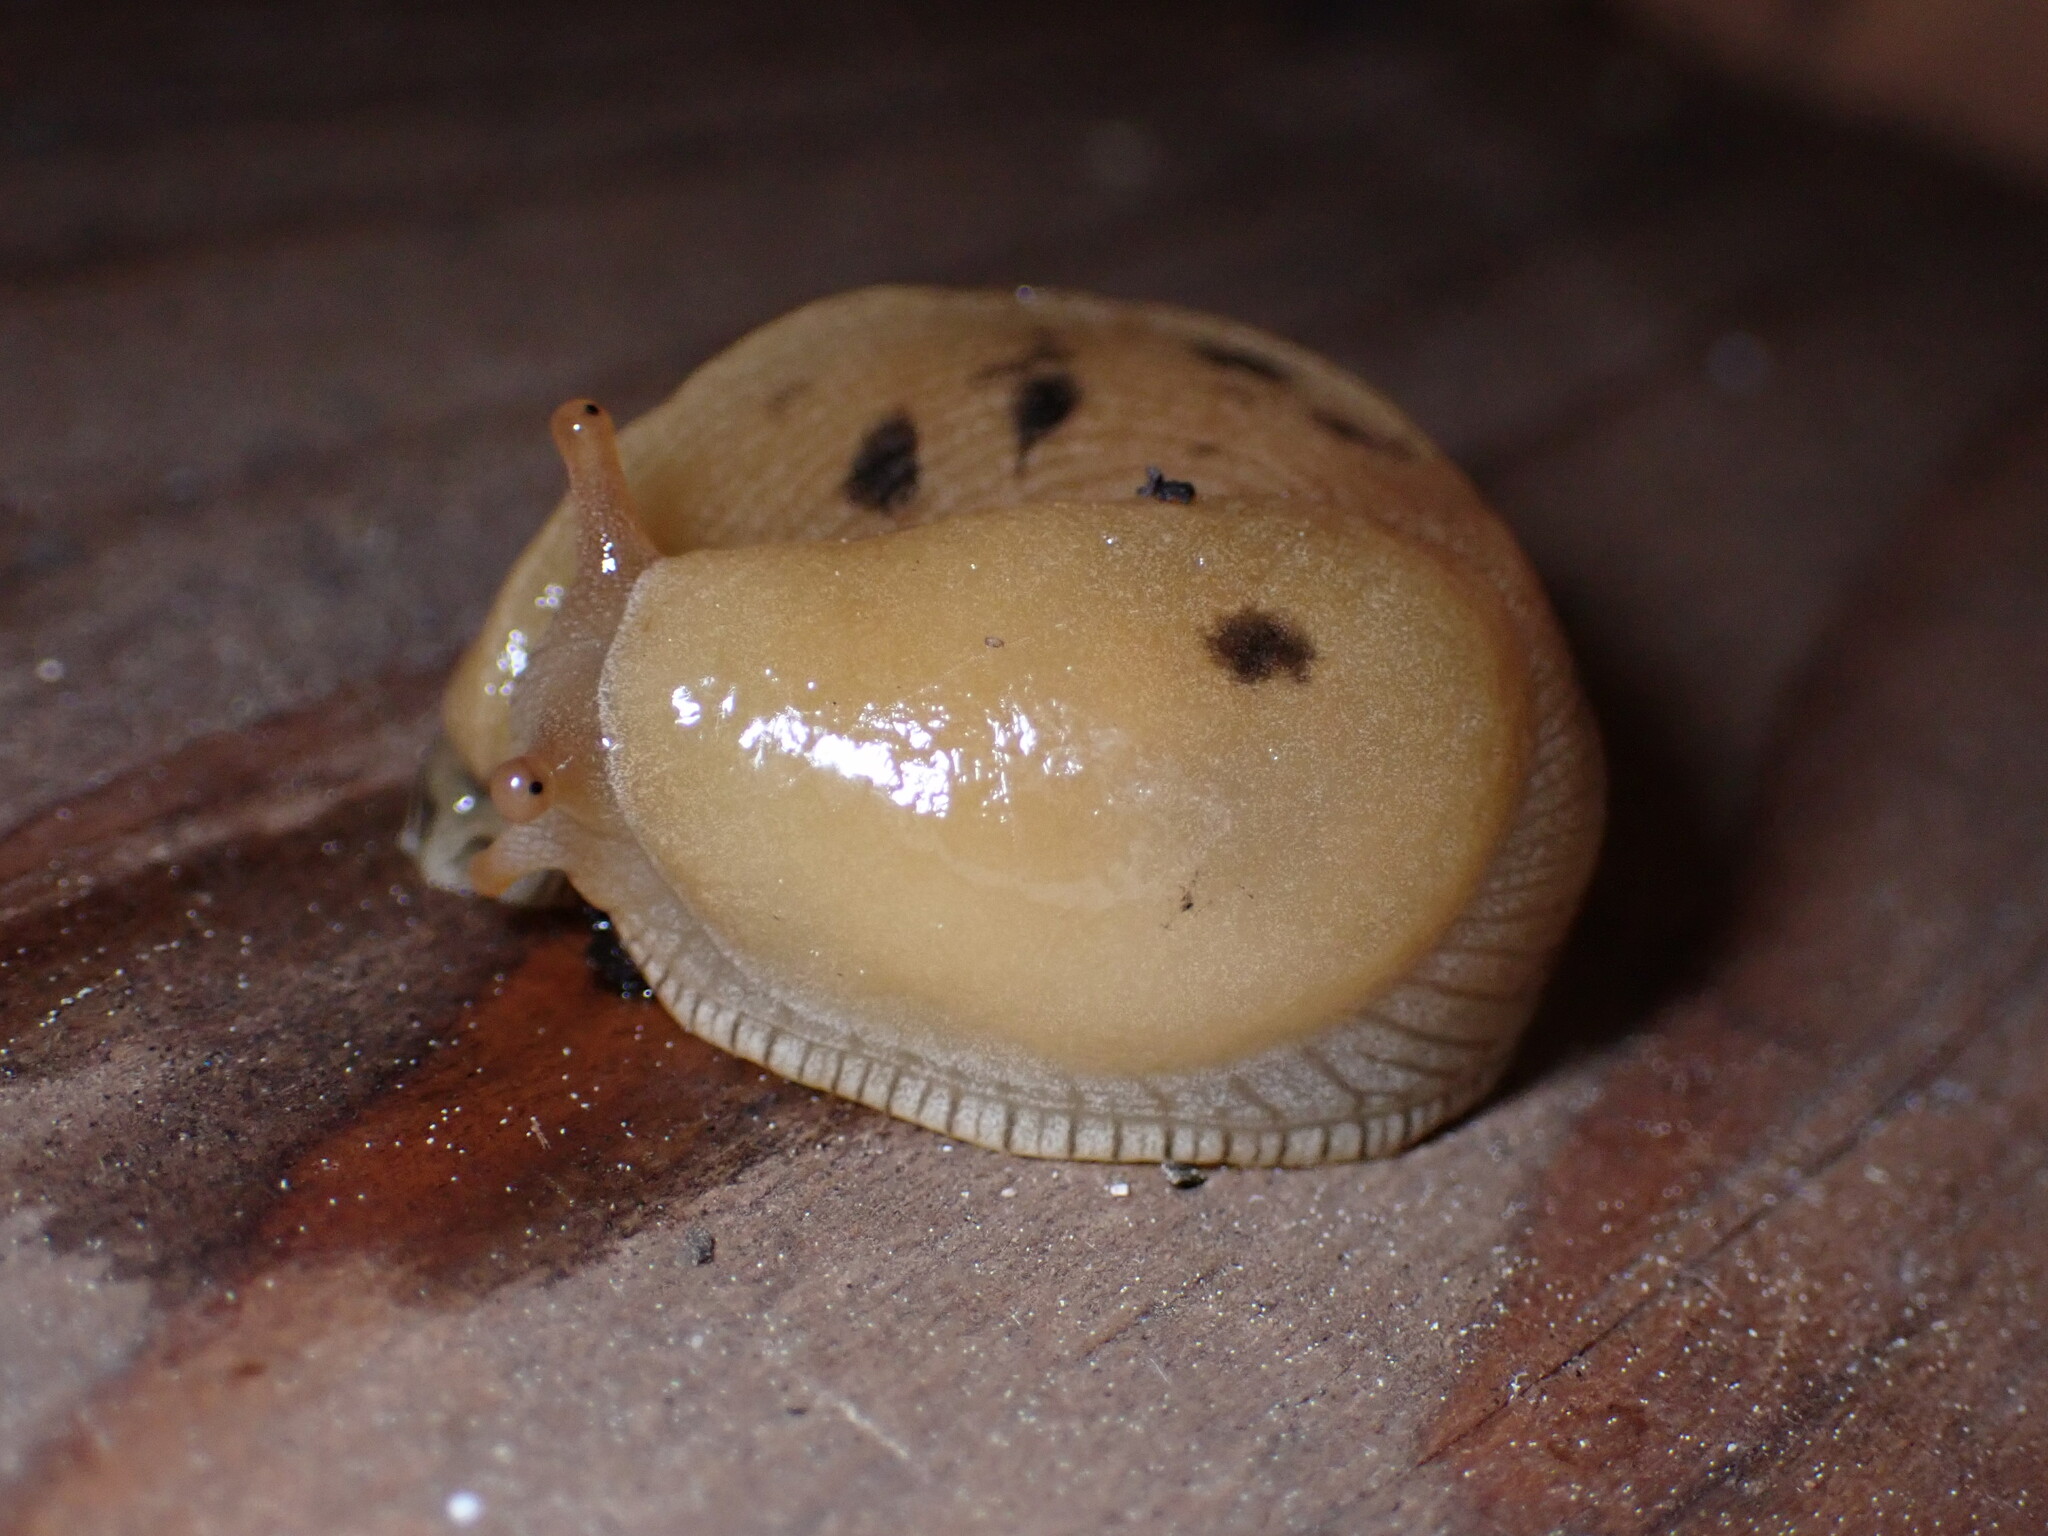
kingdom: Animalia
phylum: Mollusca
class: Gastropoda
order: Stylommatophora
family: Ariolimacidae
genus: Ariolimax
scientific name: Ariolimax buttoni
